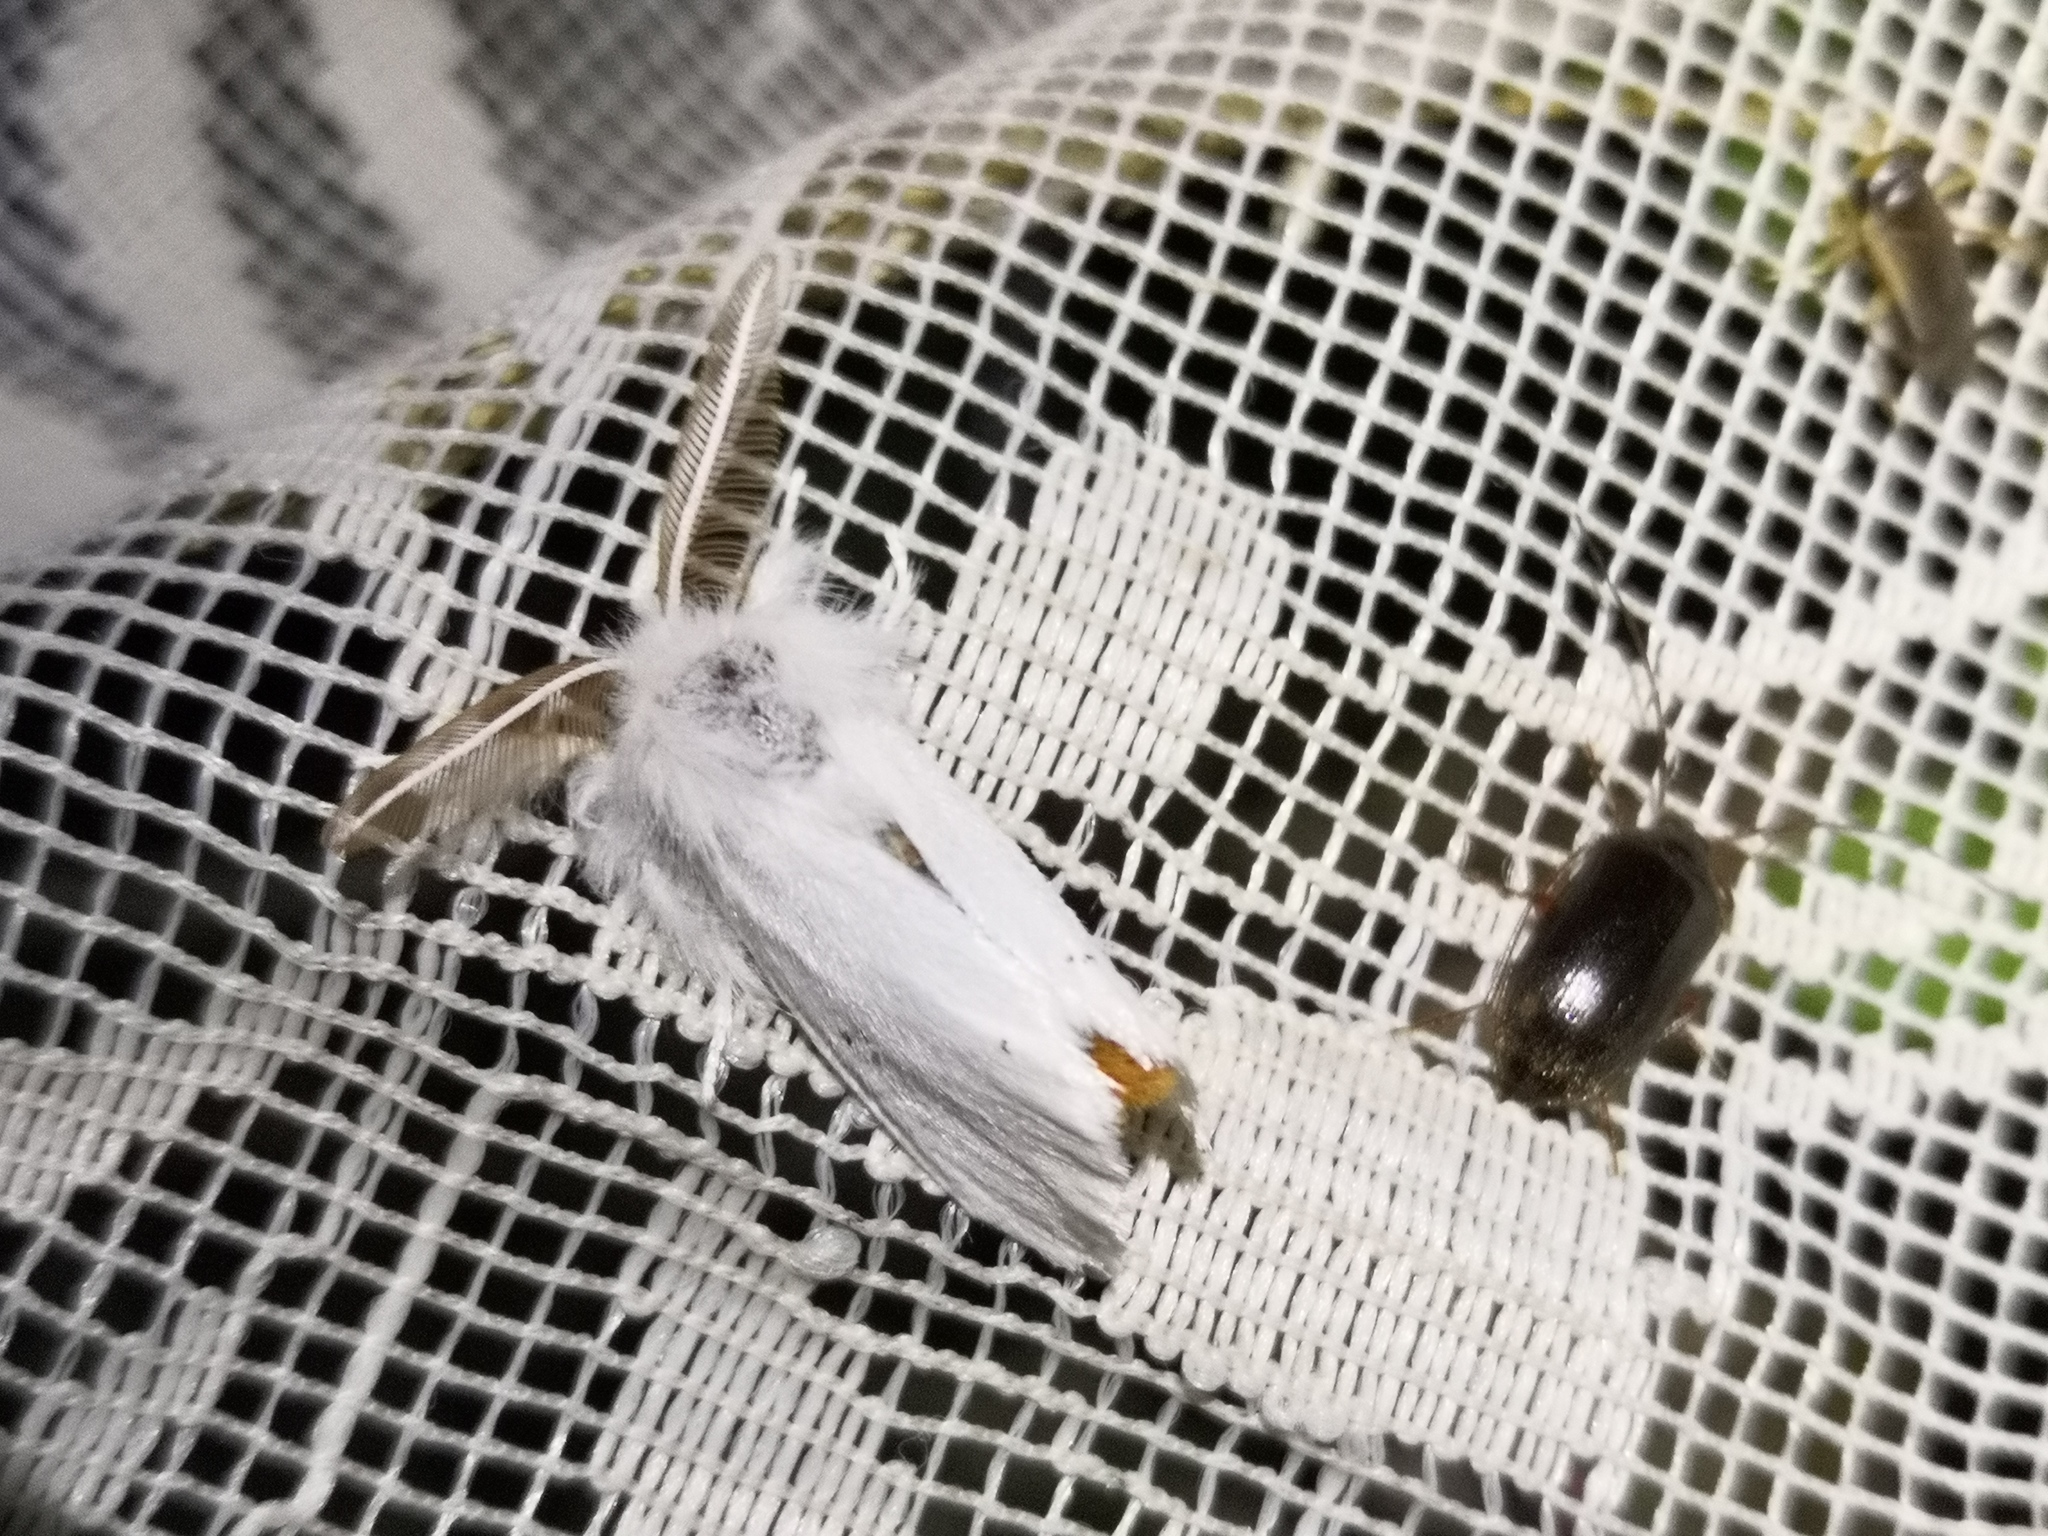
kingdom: Animalia
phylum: Arthropoda
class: Insecta
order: Lepidoptera
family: Erebidae
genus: Euproctis
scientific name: Euproctis chrysorrhoea
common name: Brown-tail
